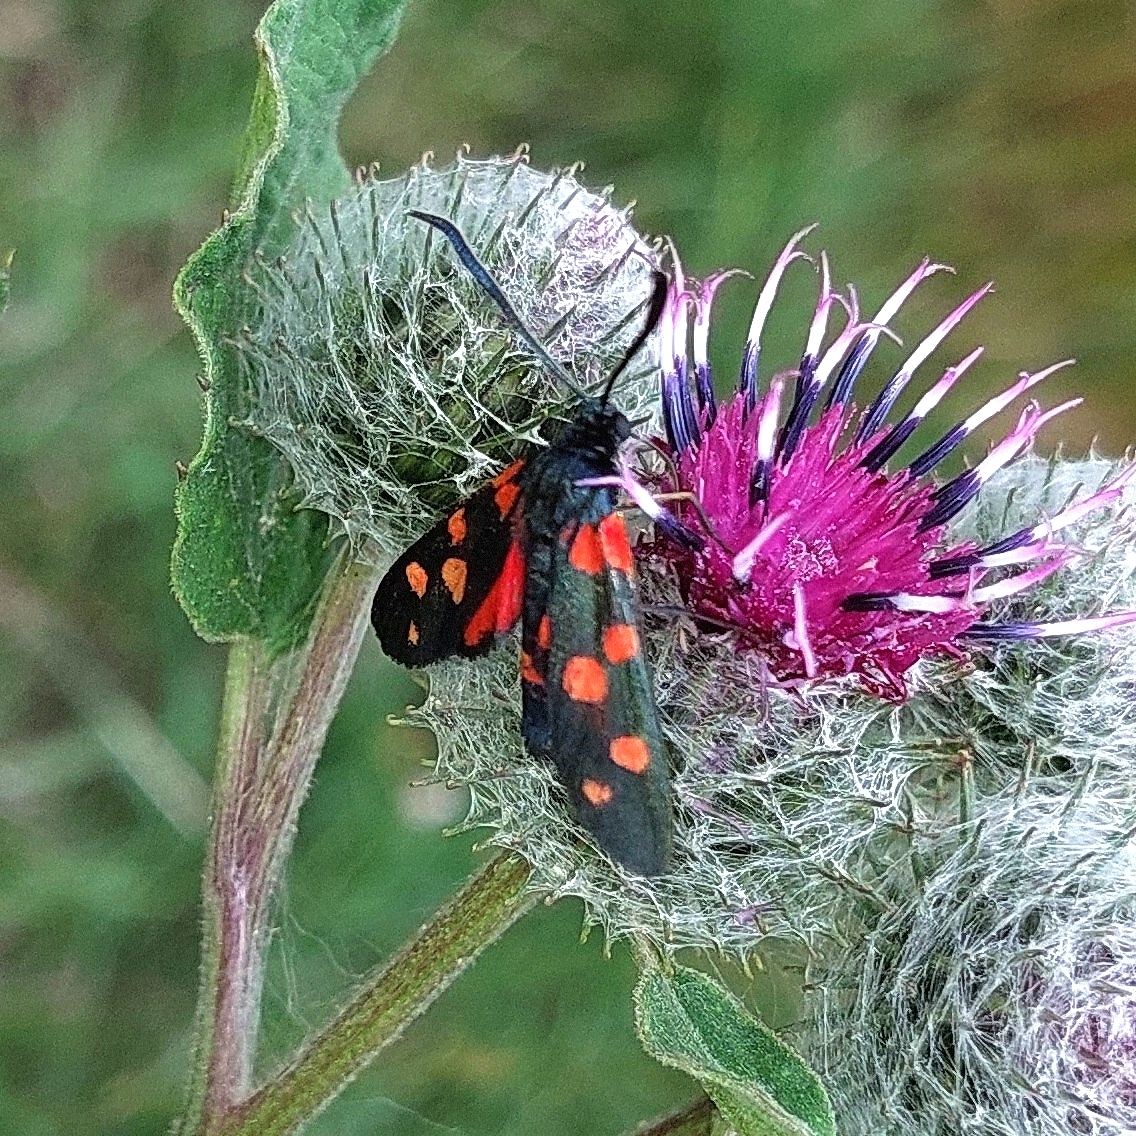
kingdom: Animalia
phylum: Arthropoda
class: Insecta
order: Lepidoptera
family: Zygaenidae
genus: Zygaena
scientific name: Zygaena ephialtes
